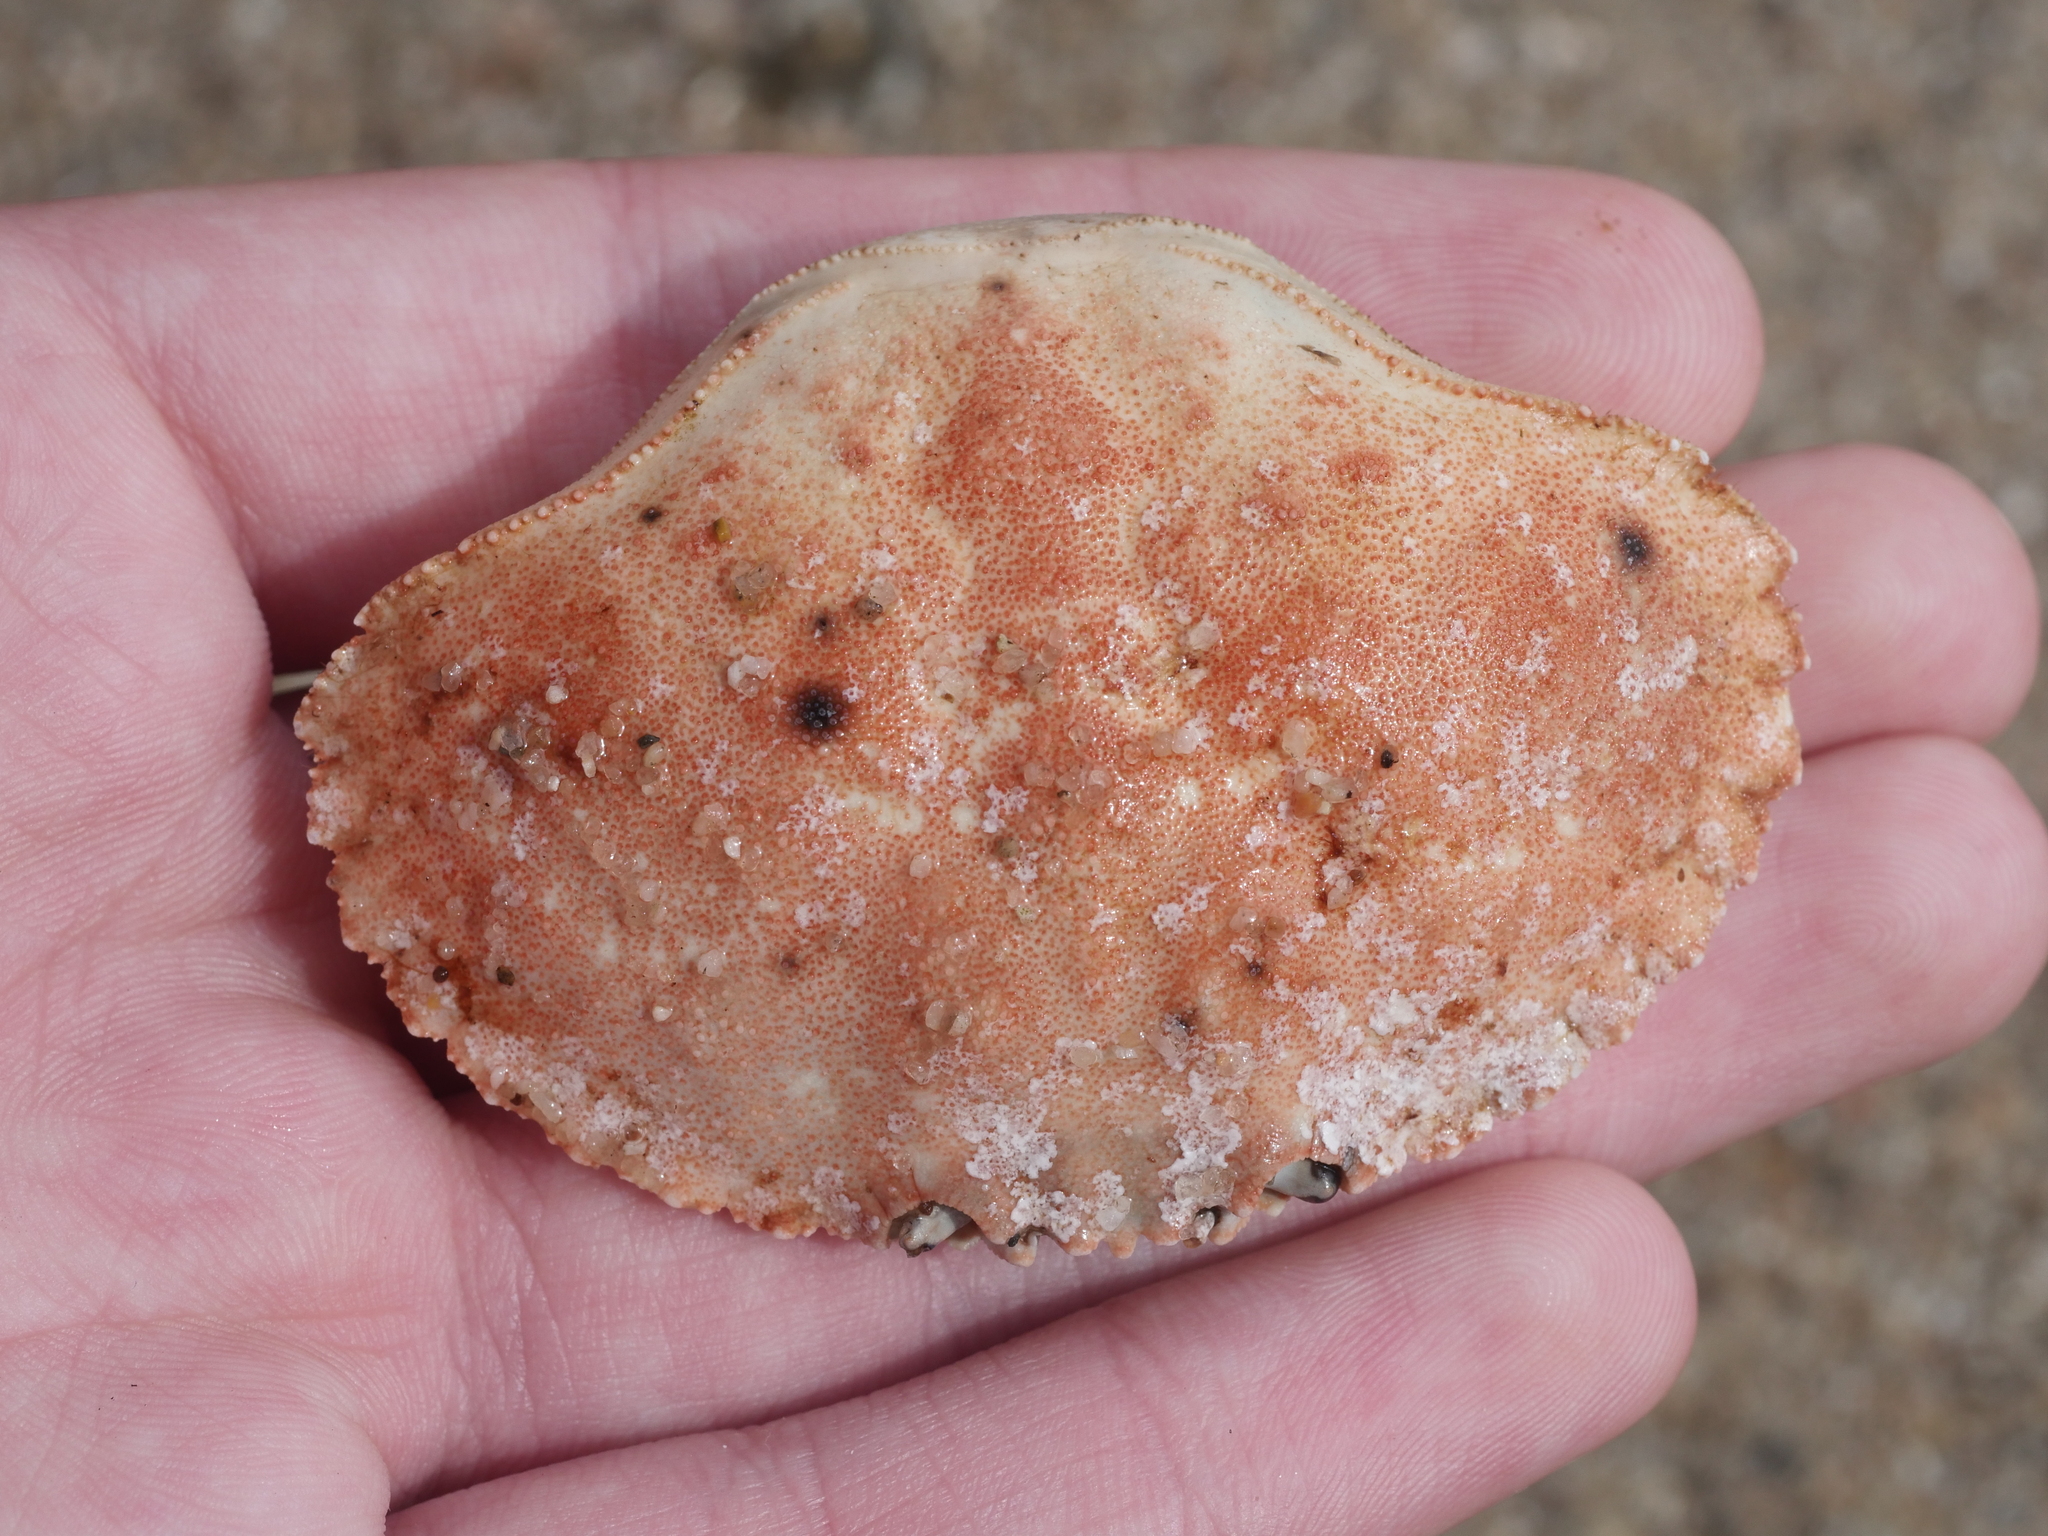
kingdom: Animalia
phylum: Arthropoda
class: Malacostraca
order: Decapoda
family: Cancridae
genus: Cancer
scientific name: Cancer borealis
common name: Jonah crab
